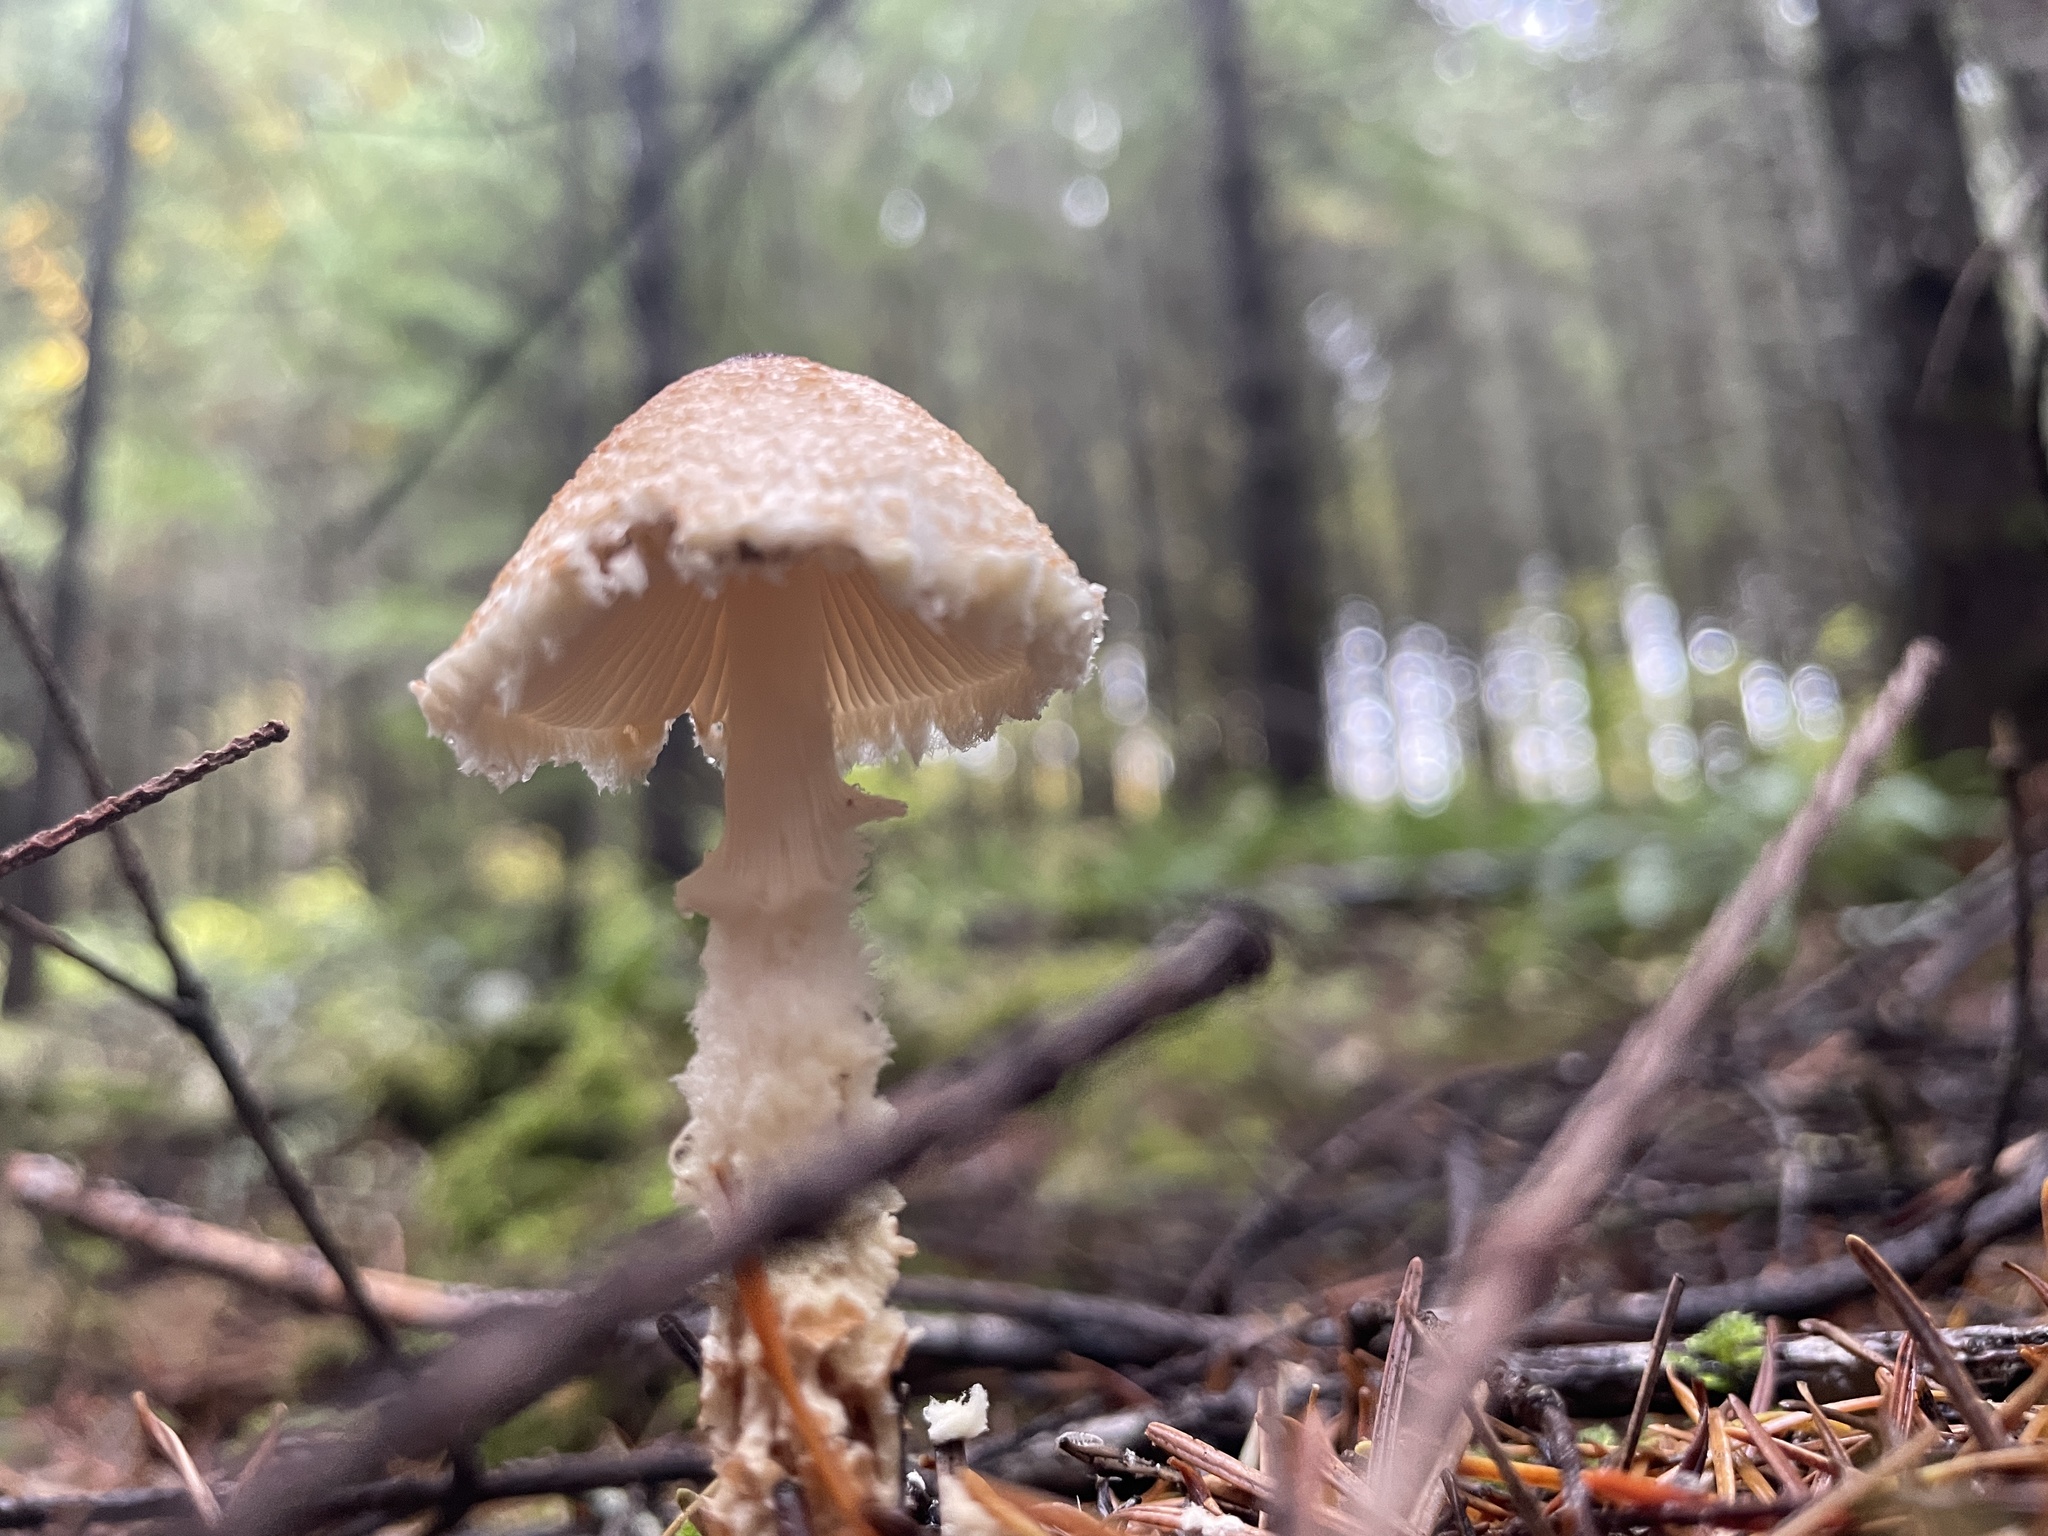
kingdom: Fungi
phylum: Basidiomycota
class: Agaricomycetes
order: Agaricales
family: Agaricaceae
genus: Lepiota
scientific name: Lepiota magnispora
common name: Yellowfoot dapperling
